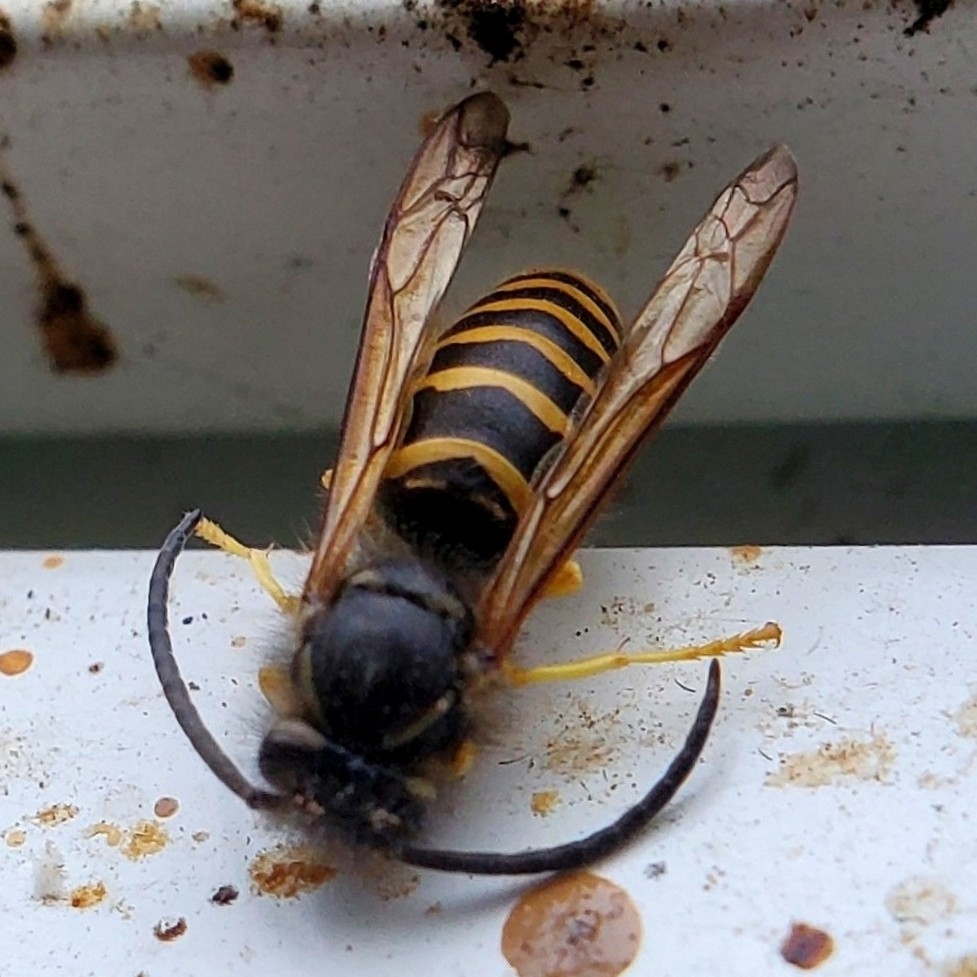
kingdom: Animalia
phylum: Arthropoda
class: Insecta
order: Hymenoptera
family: Vespidae
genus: Vespula
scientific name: Vespula alascensis
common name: Alaska yellowjacket
